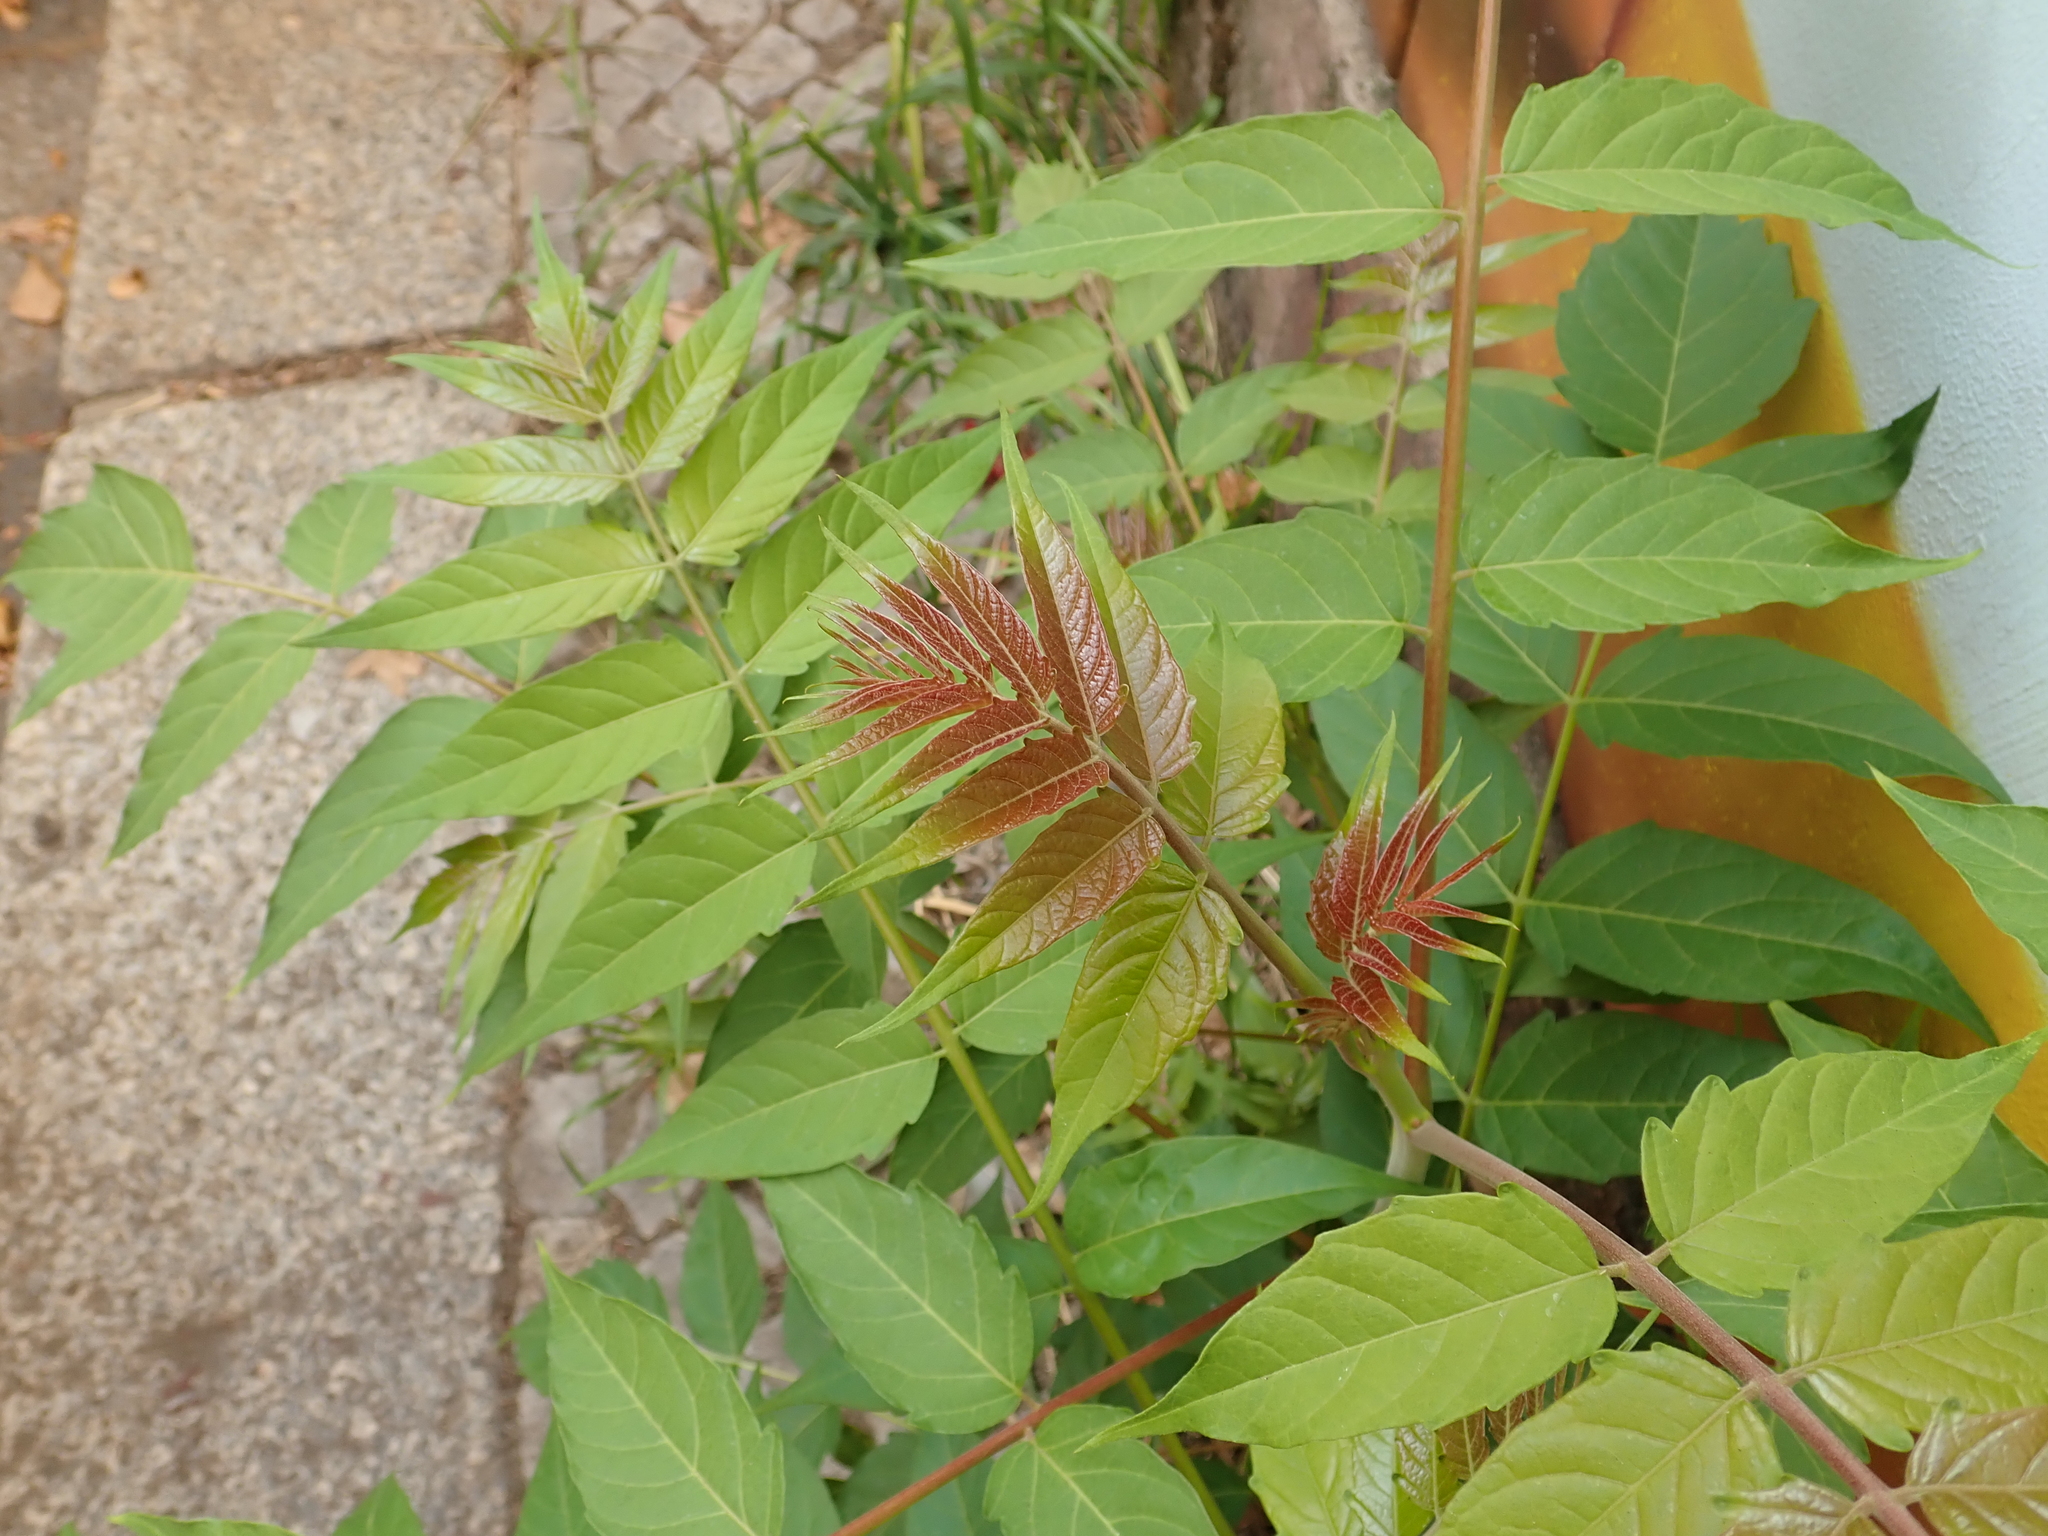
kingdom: Plantae
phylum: Tracheophyta
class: Magnoliopsida
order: Sapindales
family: Simaroubaceae
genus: Ailanthus
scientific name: Ailanthus altissima
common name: Tree-of-heaven
